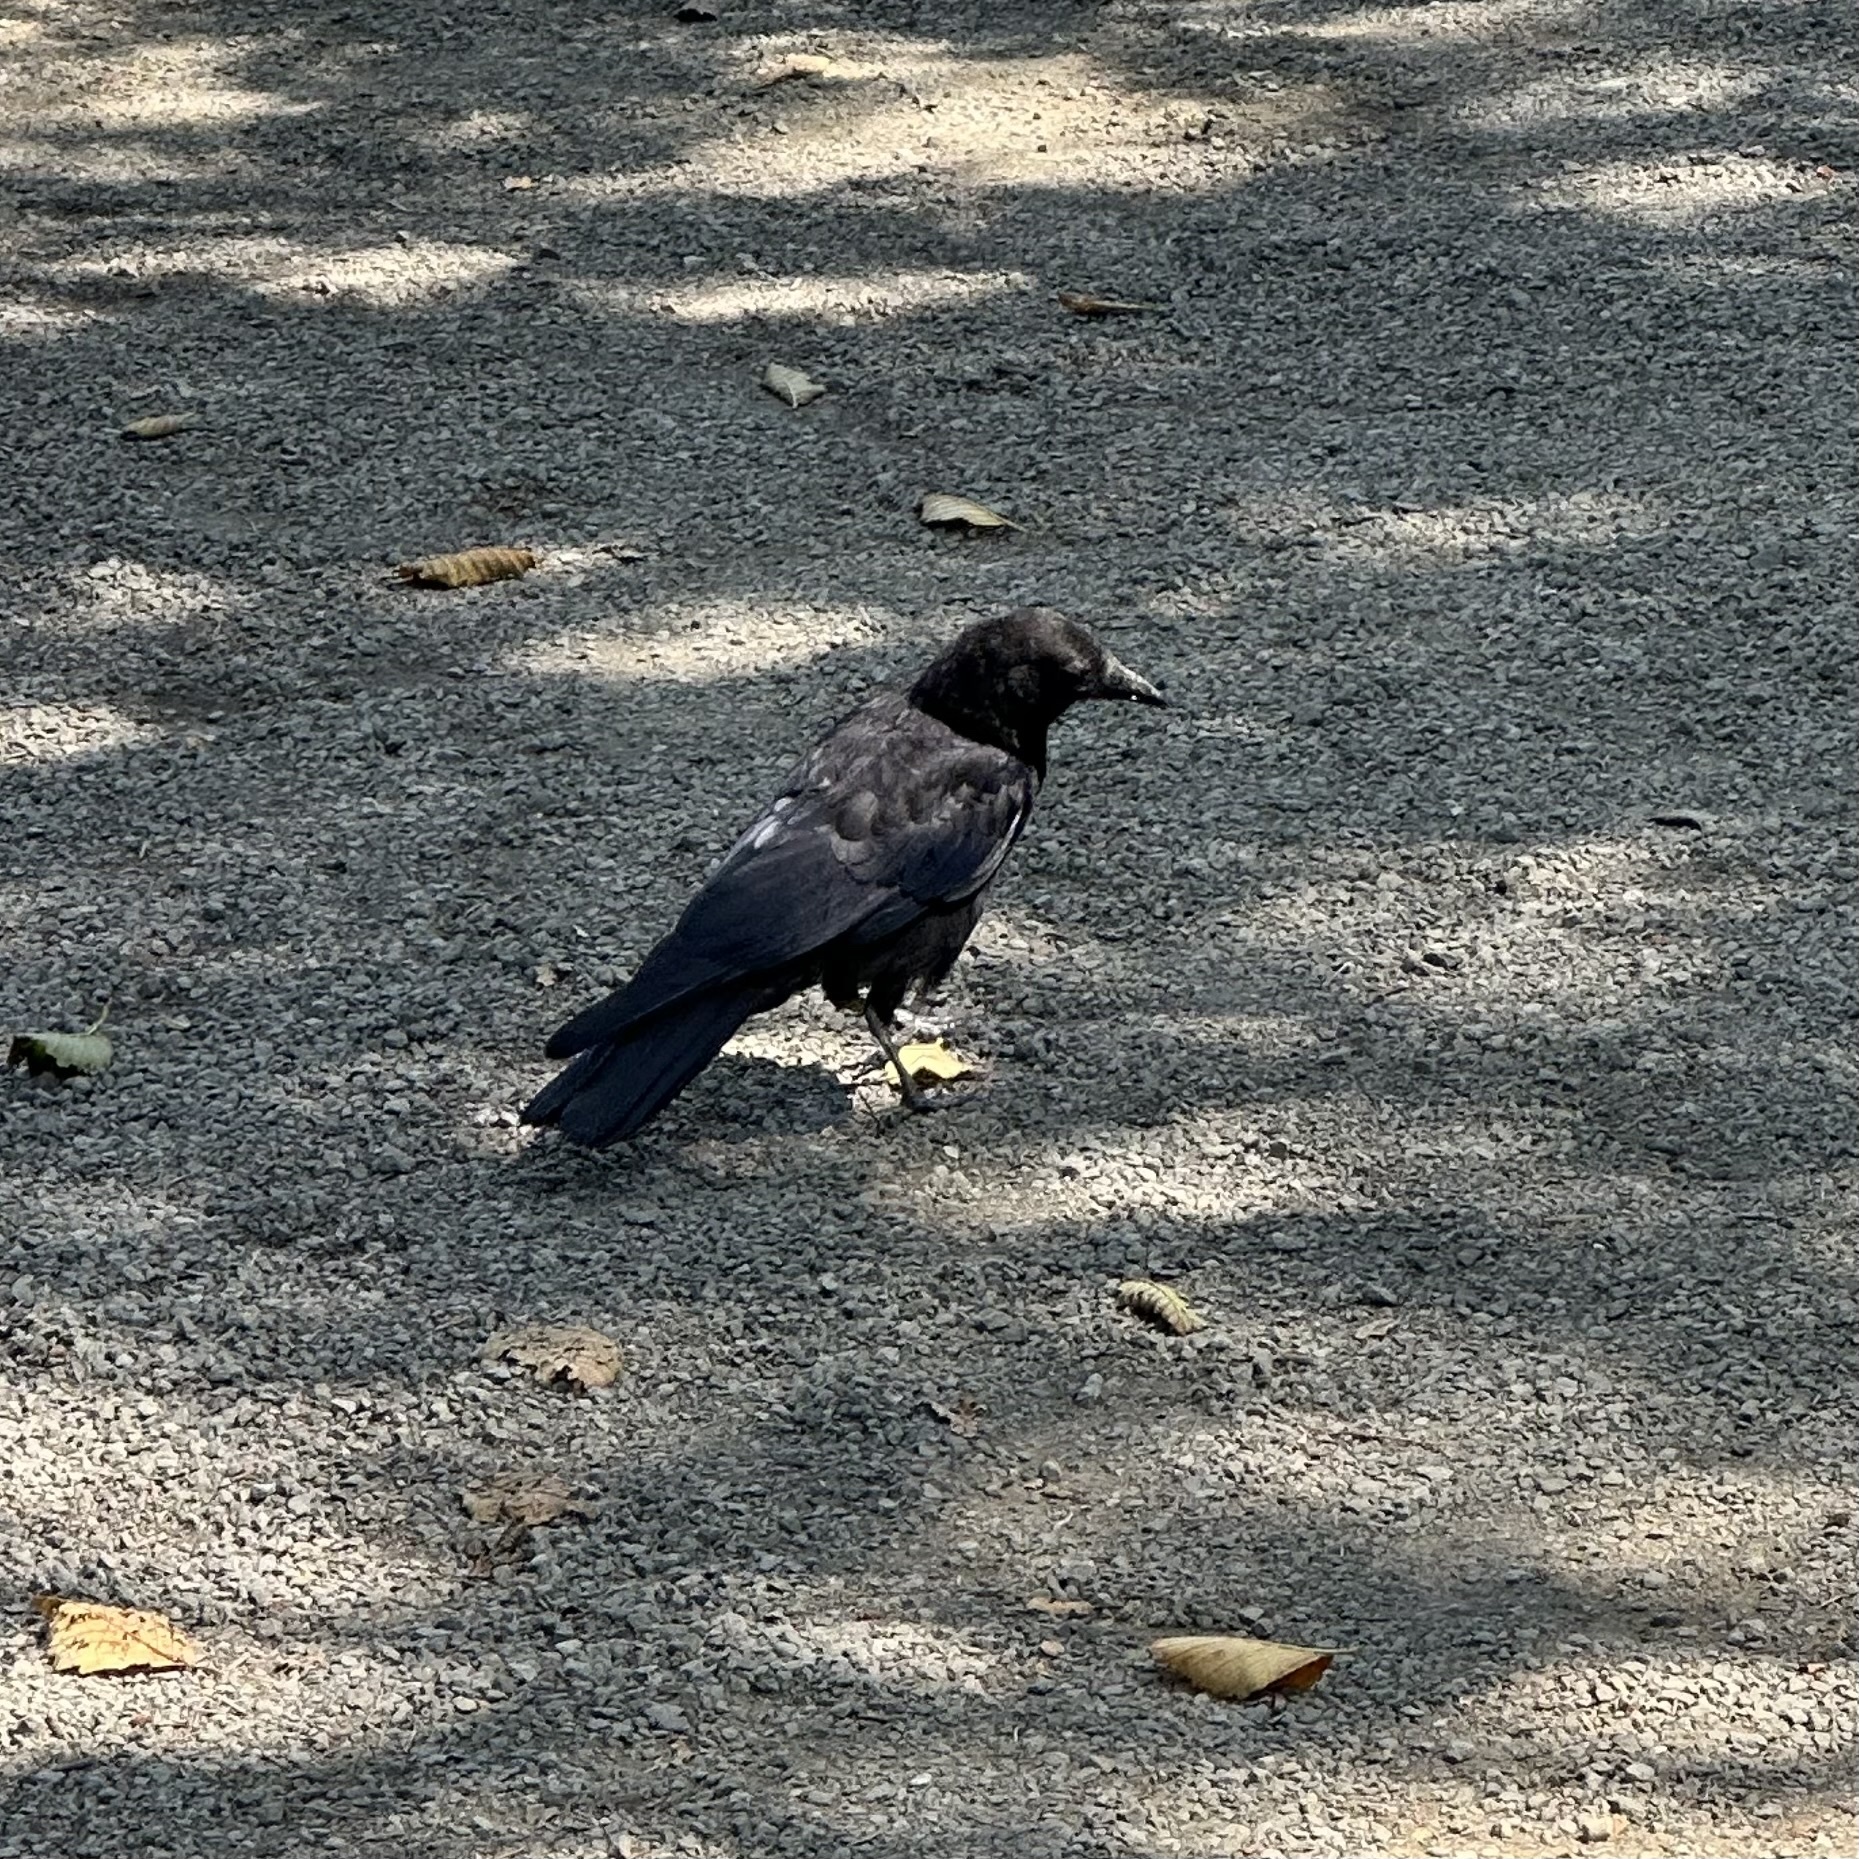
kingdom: Animalia
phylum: Chordata
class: Aves
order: Passeriformes
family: Corvidae
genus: Corvus
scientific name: Corvus brachyrhynchos
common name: American crow
